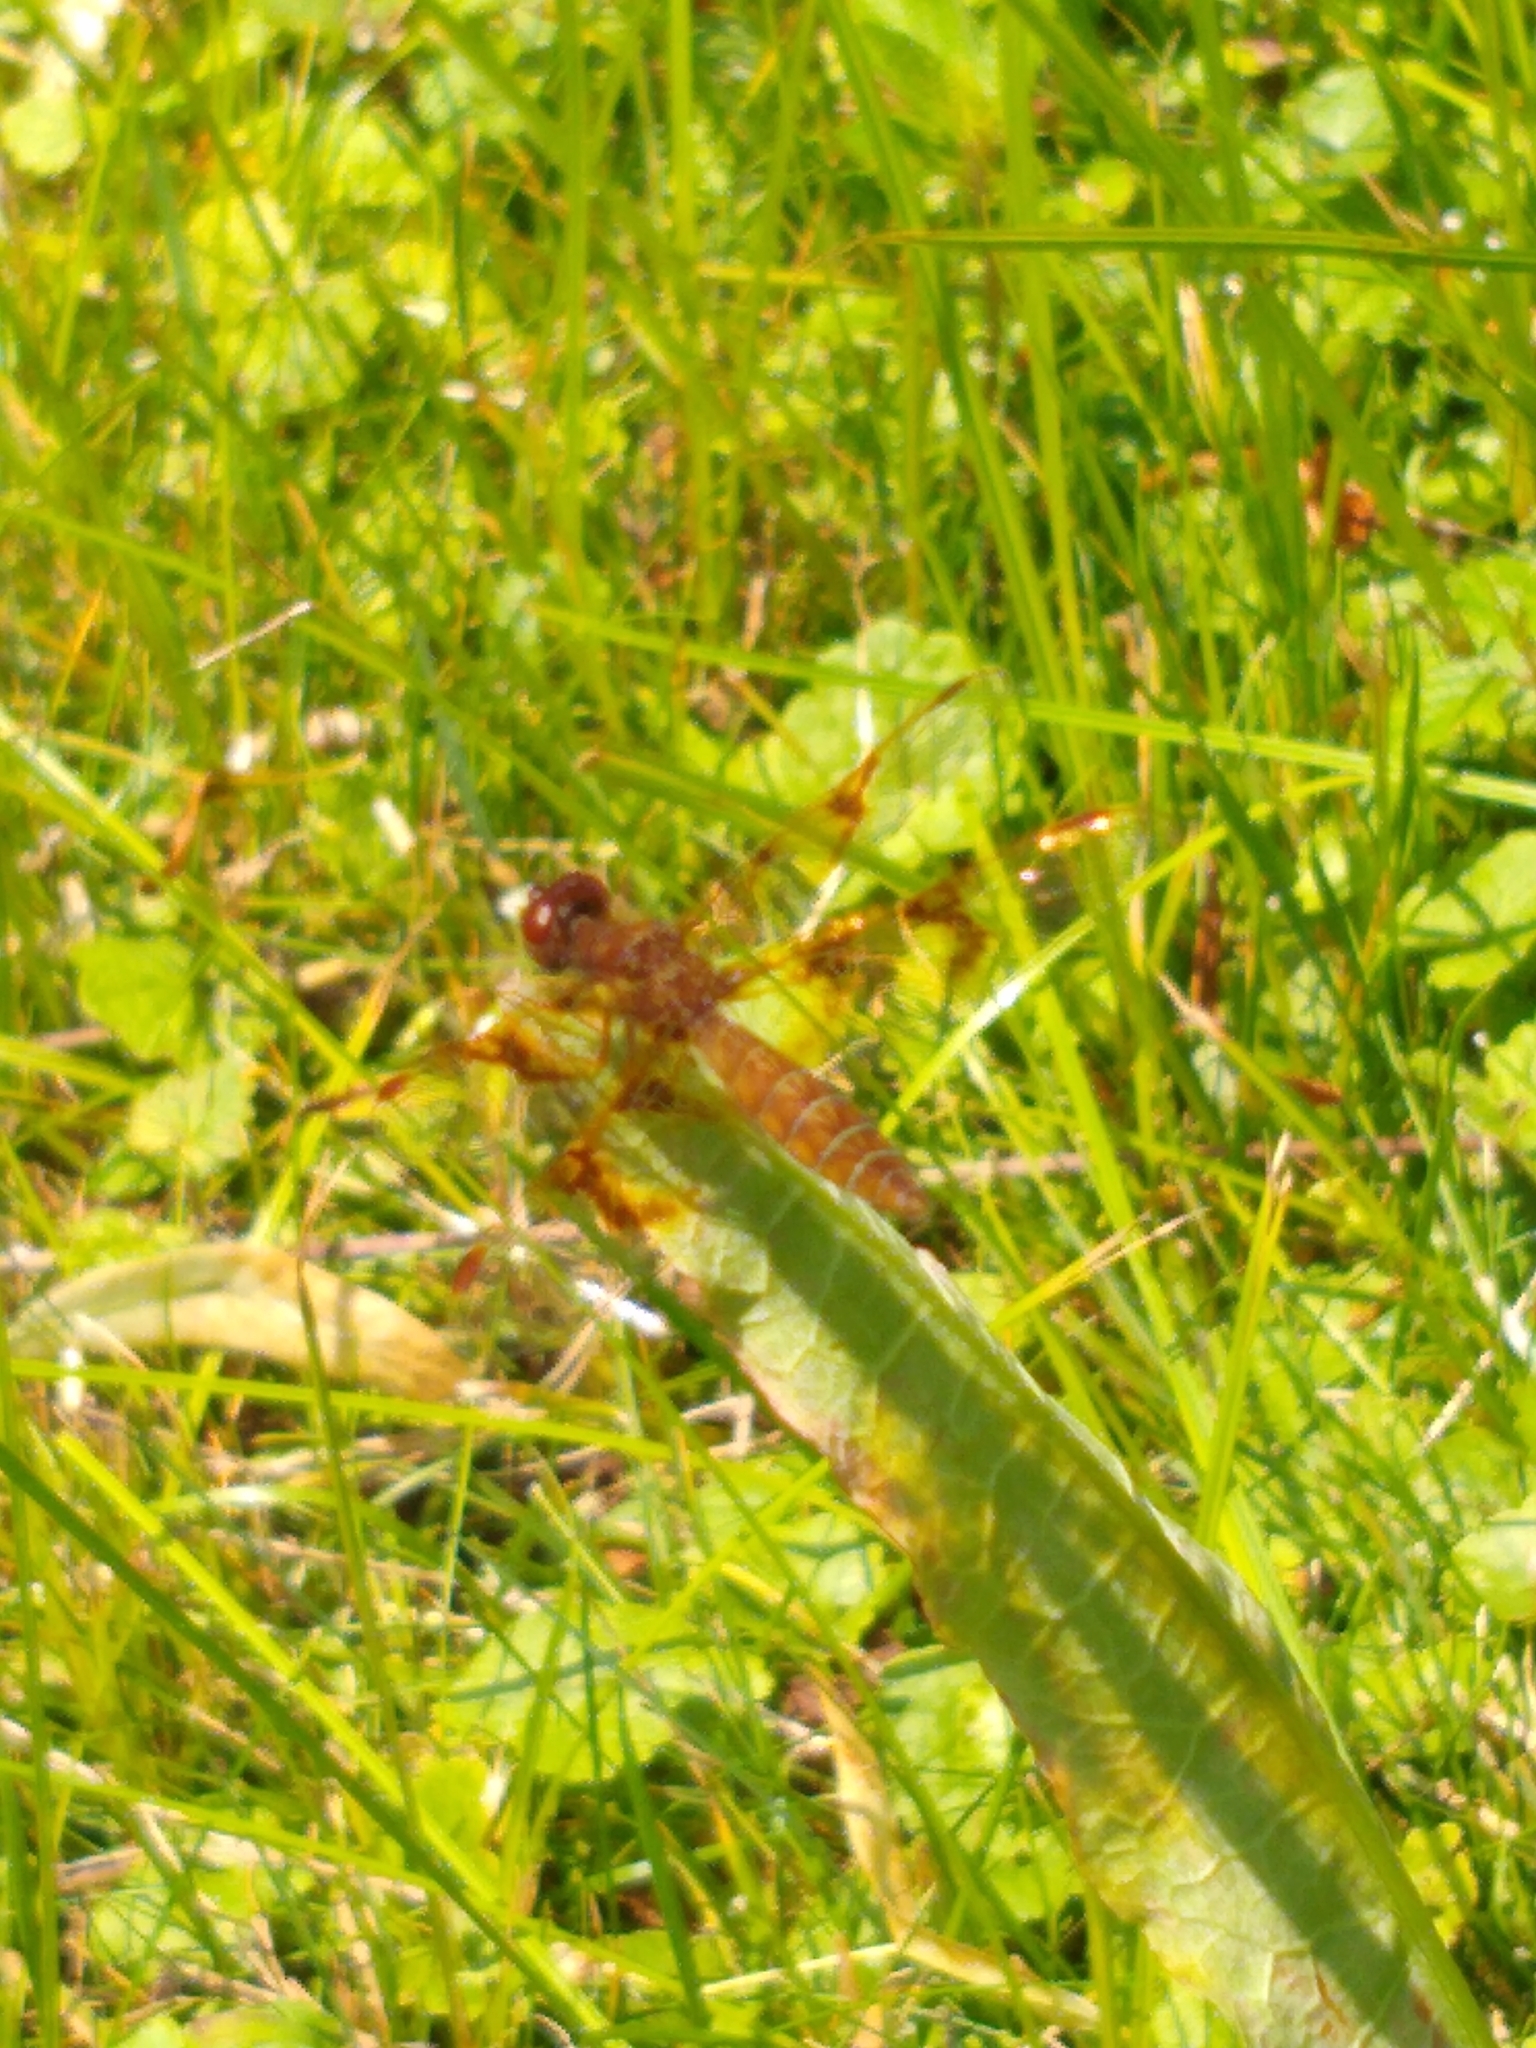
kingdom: Animalia
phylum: Arthropoda
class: Insecta
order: Odonata
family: Libellulidae
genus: Perithemis
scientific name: Perithemis tenera
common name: Eastern amberwing
